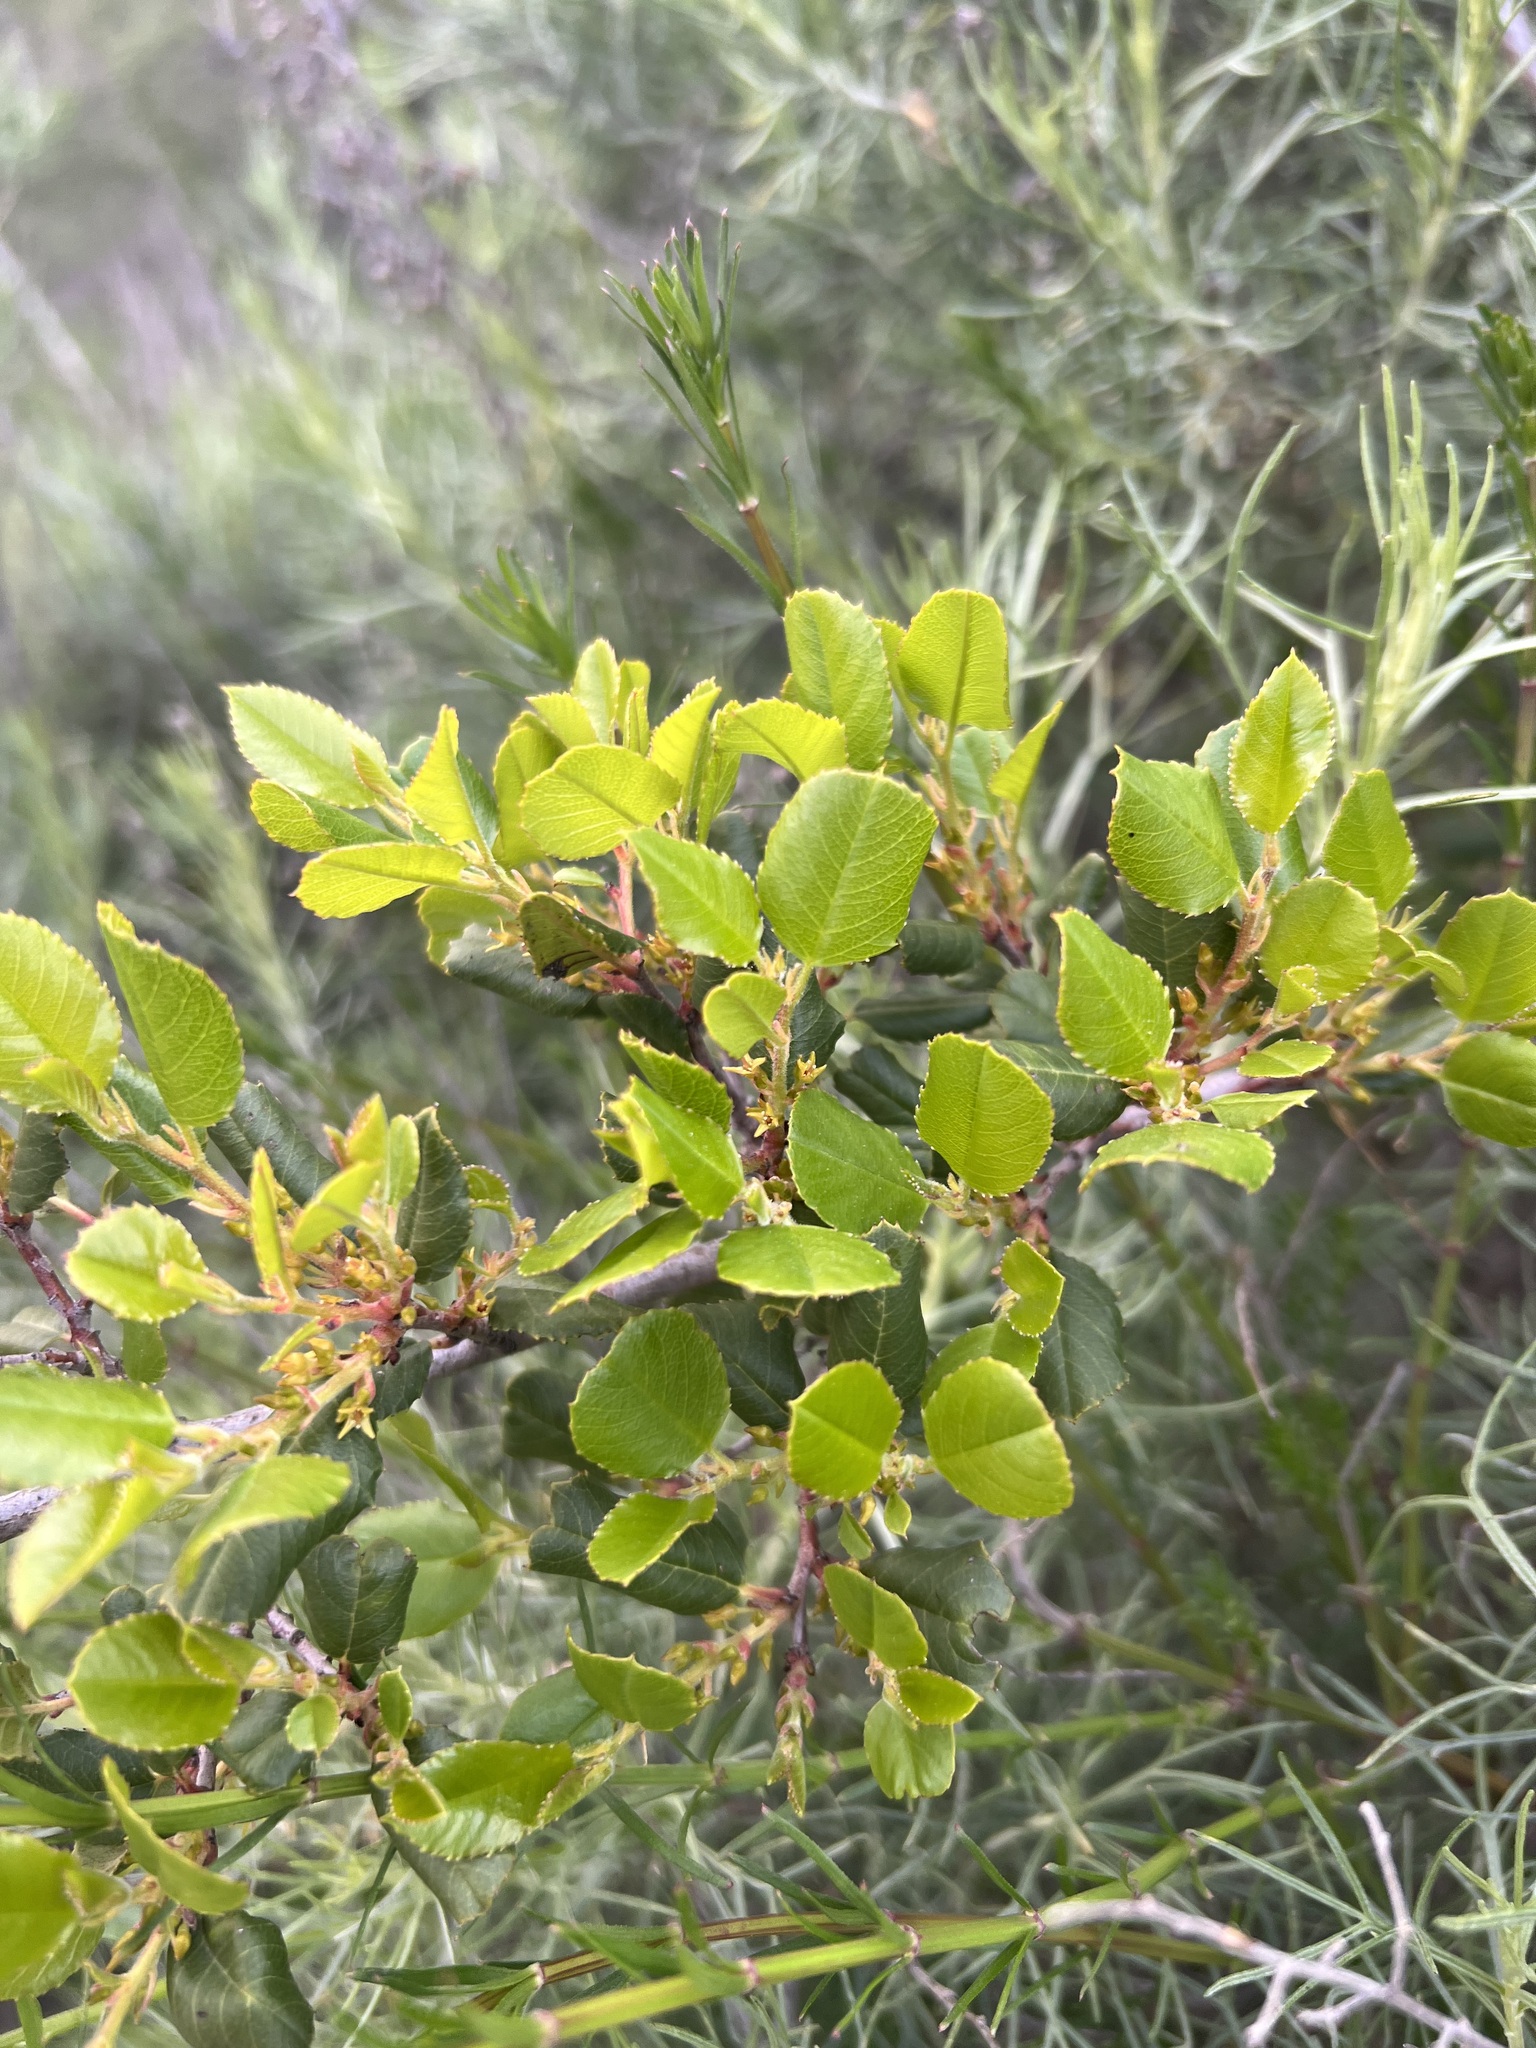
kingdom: Plantae
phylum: Tracheophyta
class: Magnoliopsida
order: Rosales
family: Rhamnaceae
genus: Endotropis
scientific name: Endotropis crocea
